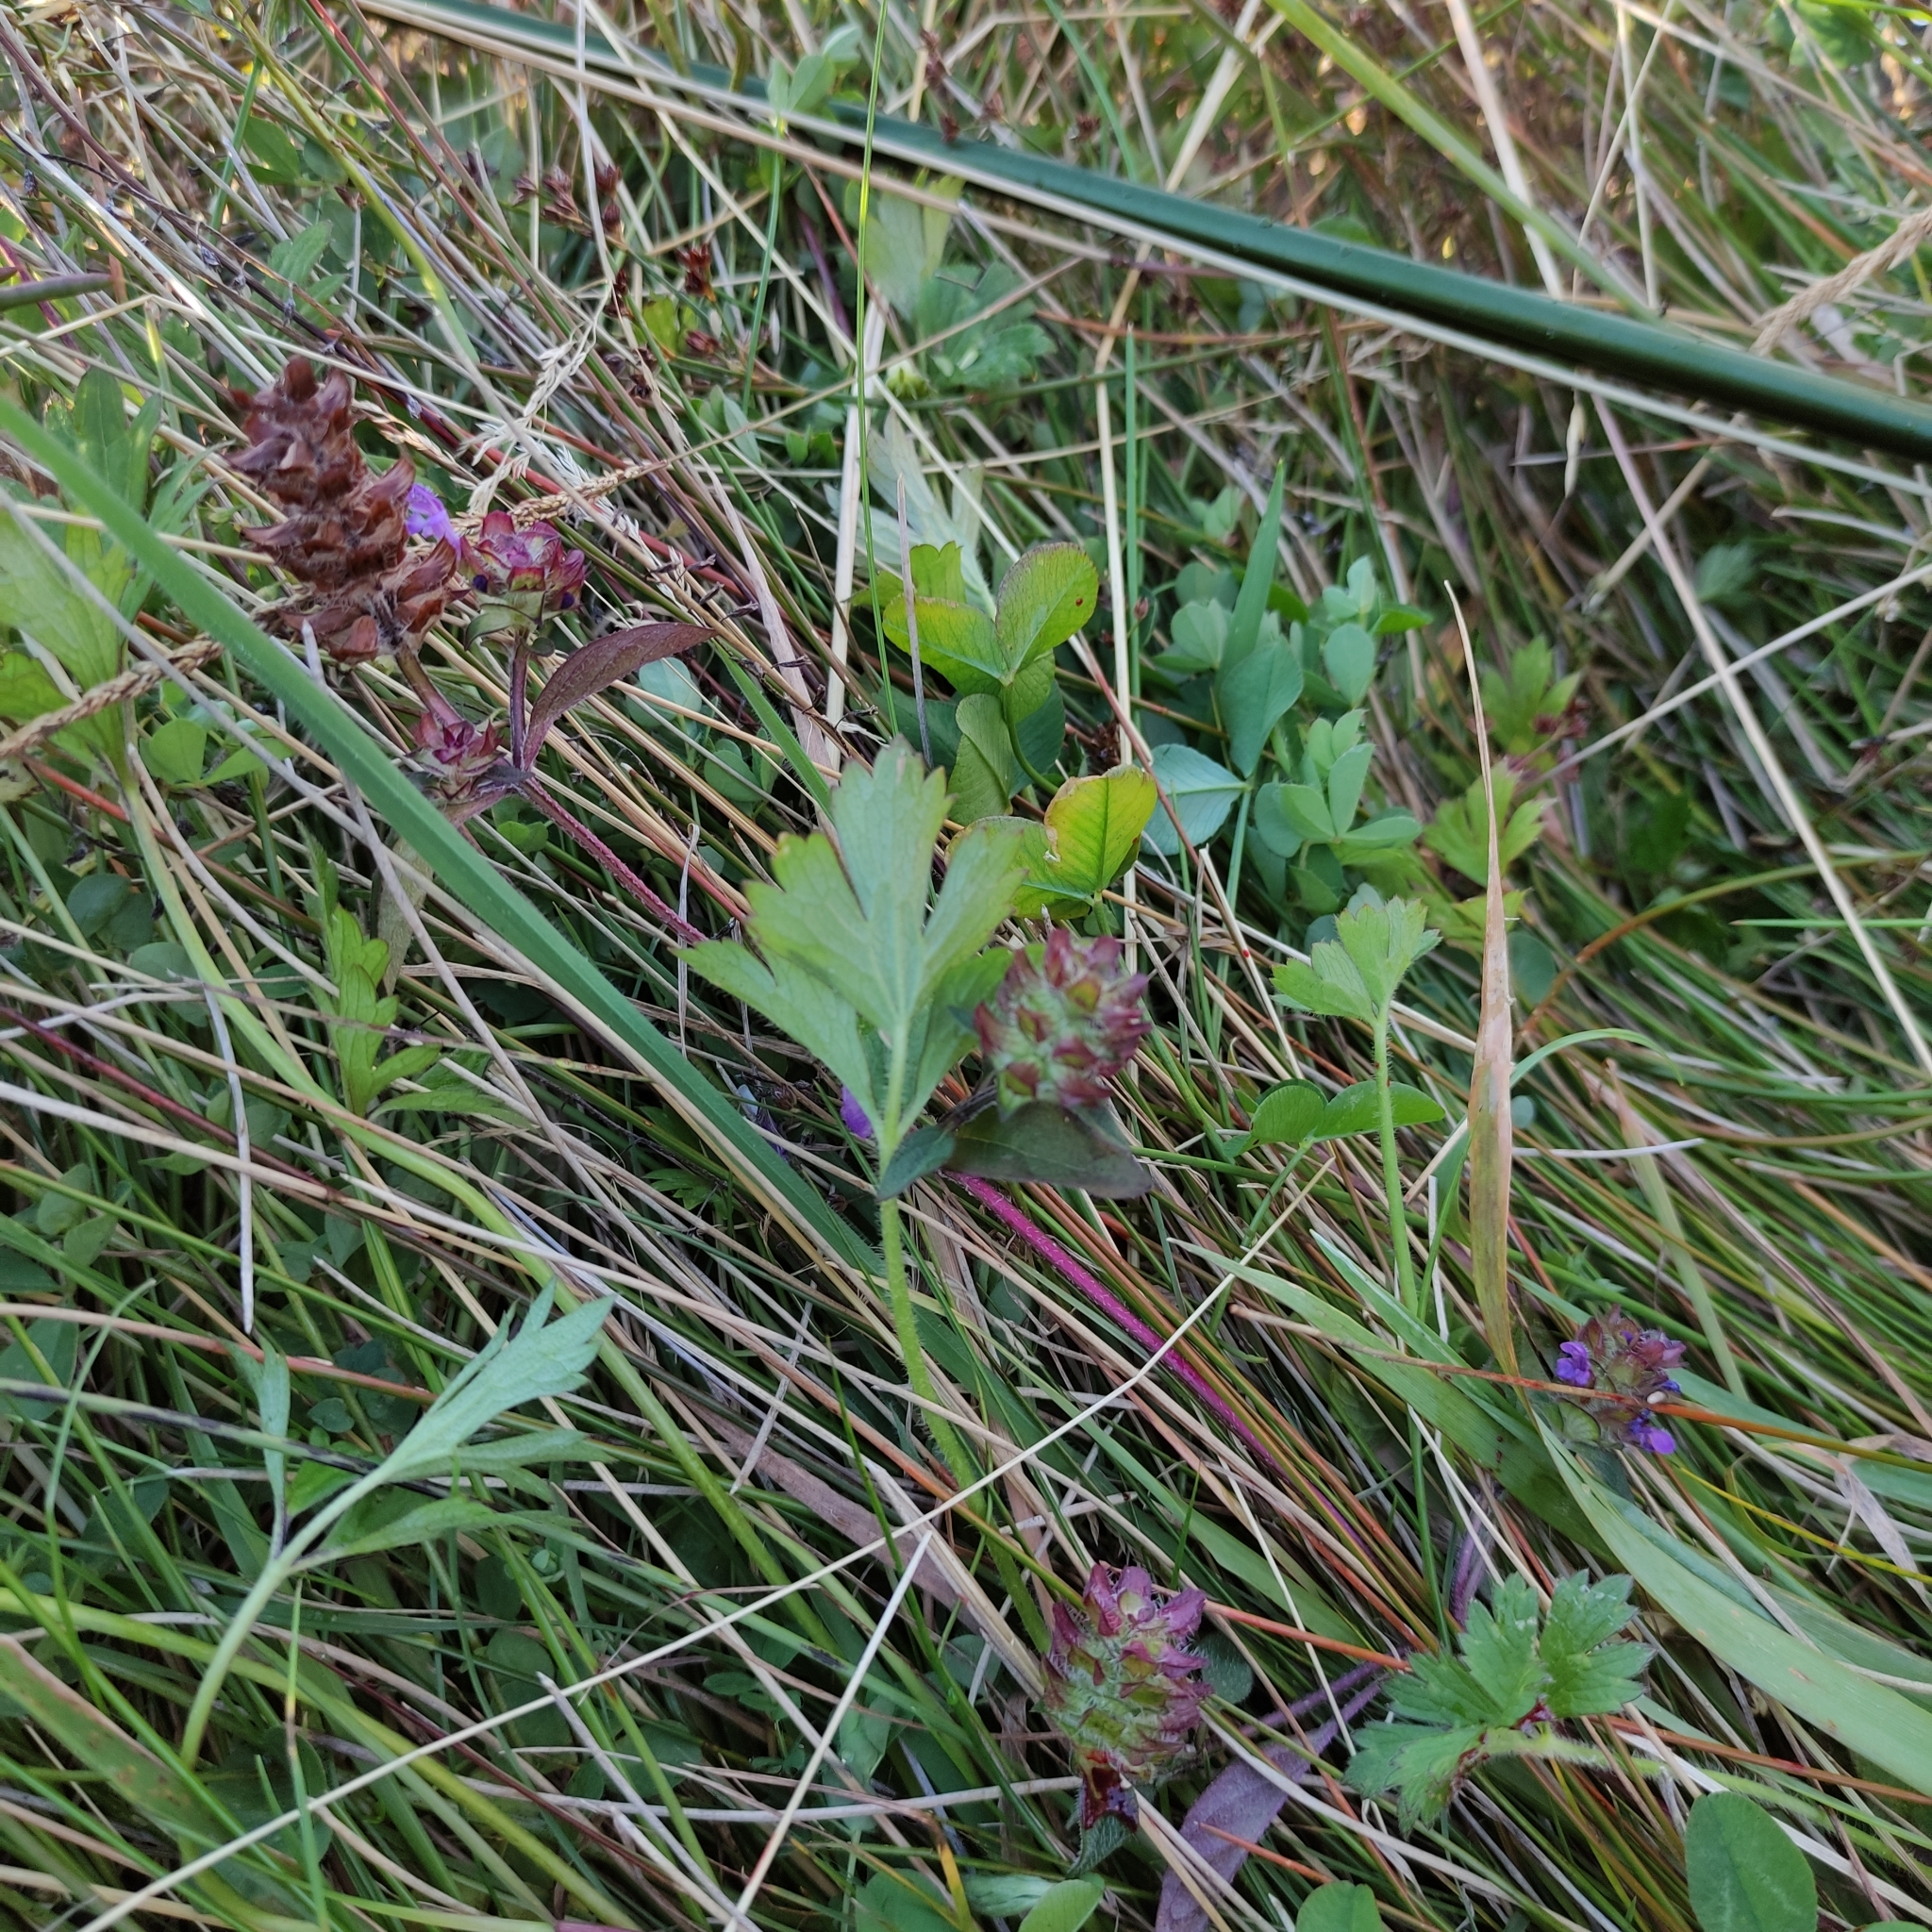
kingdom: Plantae
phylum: Tracheophyta
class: Magnoliopsida
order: Lamiales
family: Lamiaceae
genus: Prunella
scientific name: Prunella vulgaris
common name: Heal-all
